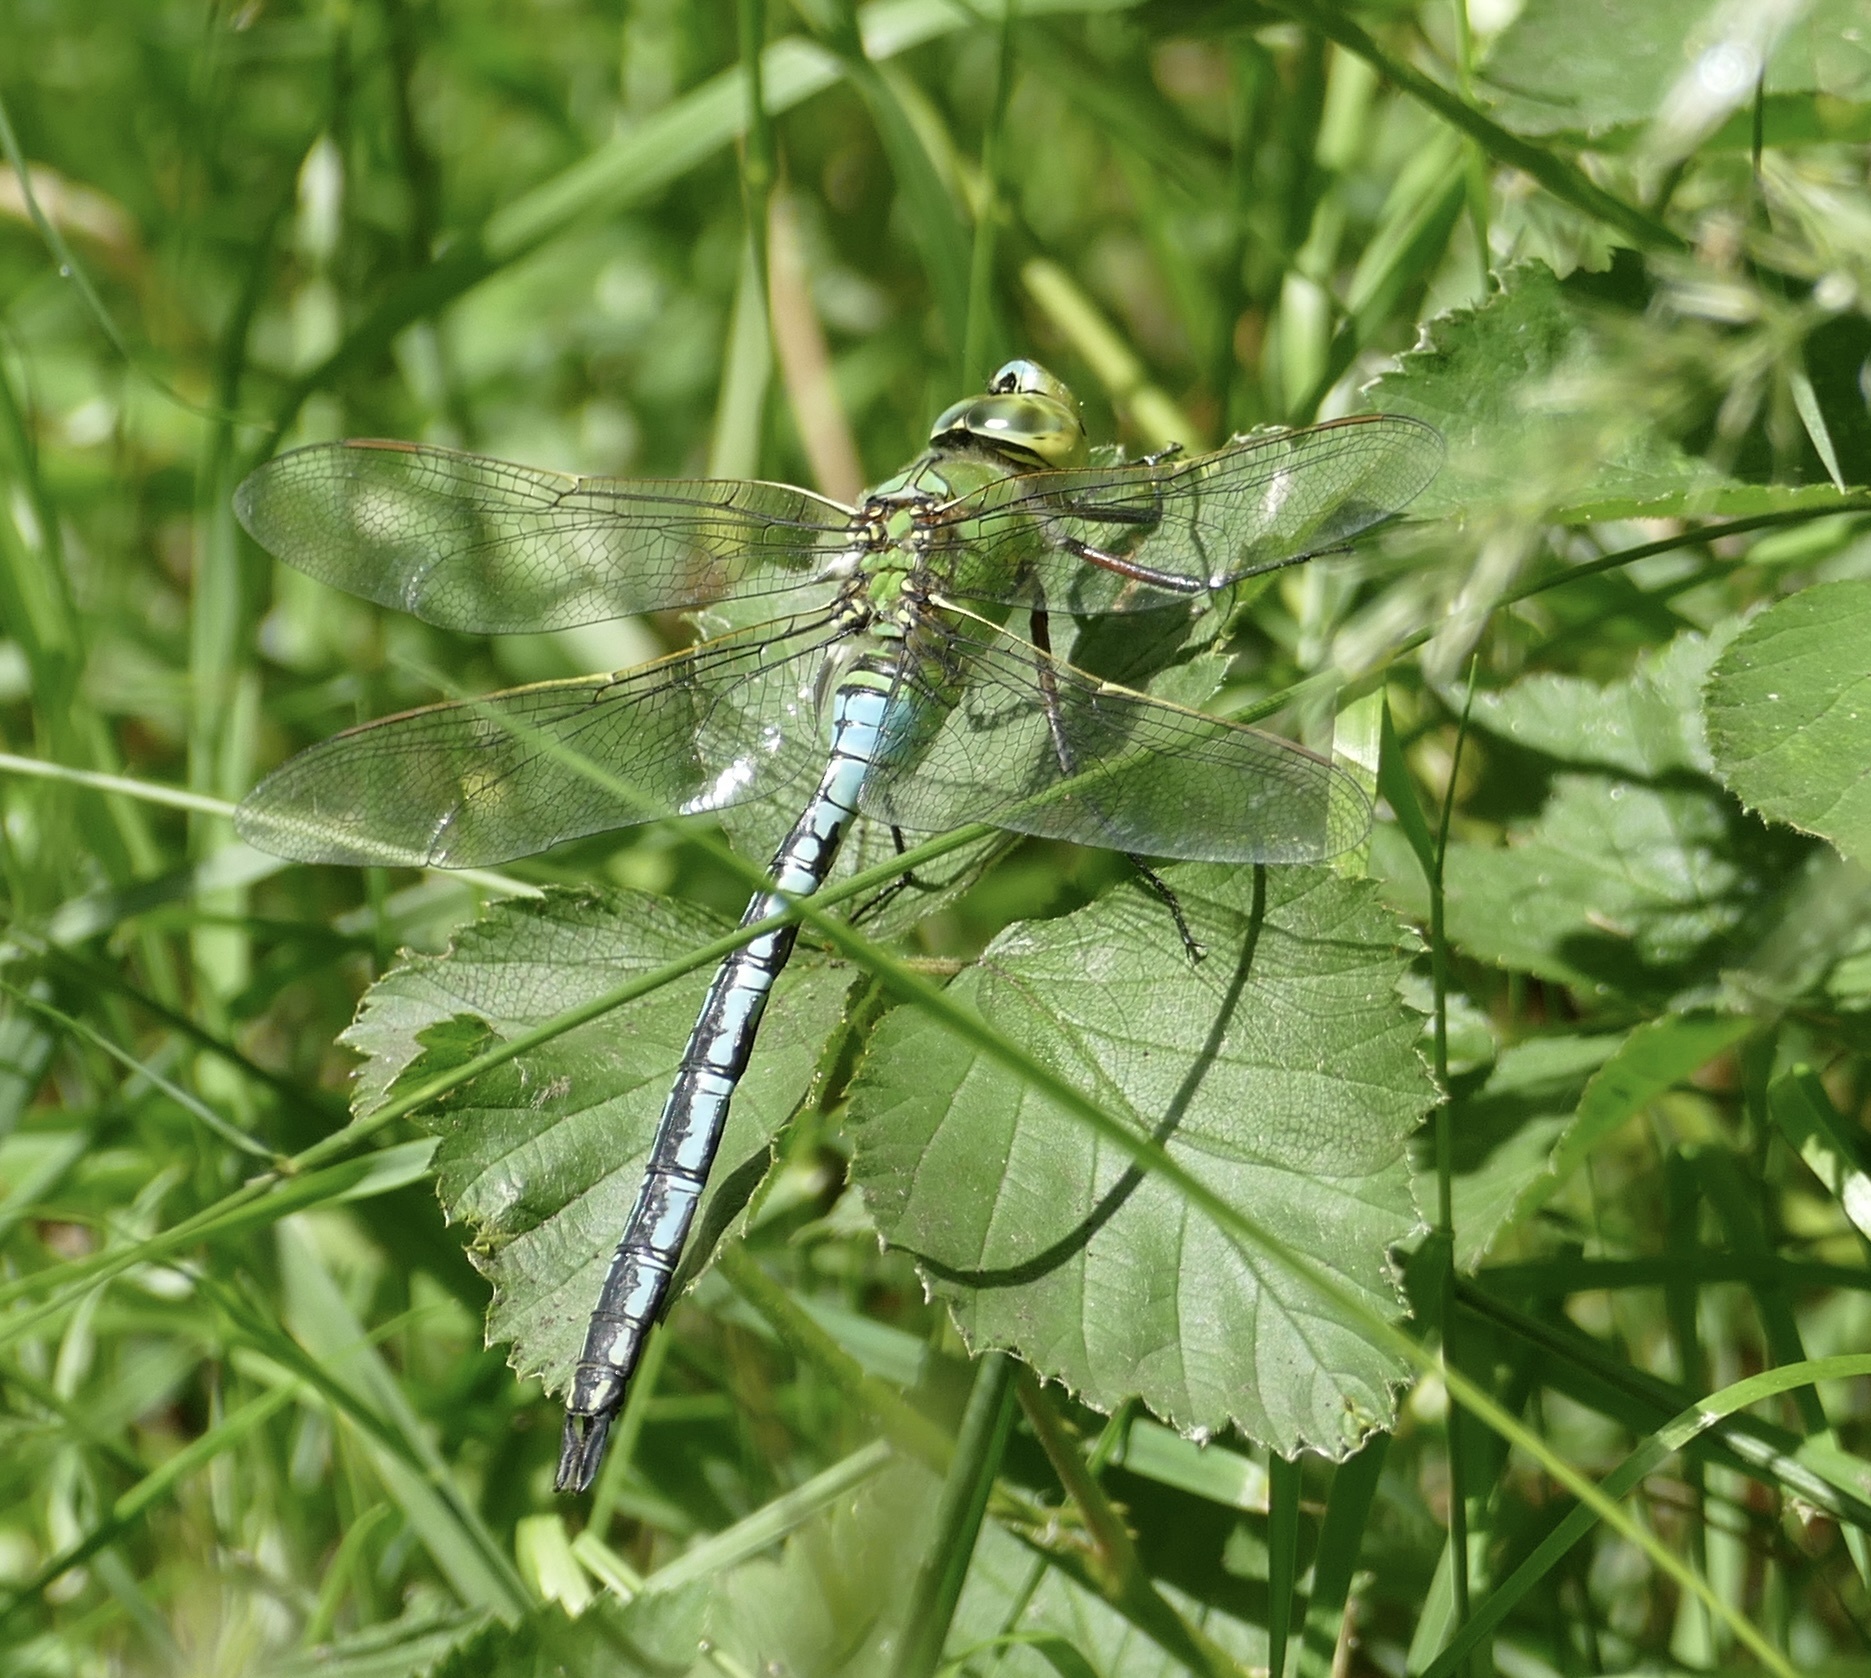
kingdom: Animalia
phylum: Arthropoda
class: Insecta
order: Odonata
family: Aeshnidae
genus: Anax
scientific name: Anax imperator
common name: Emperor dragonfly
